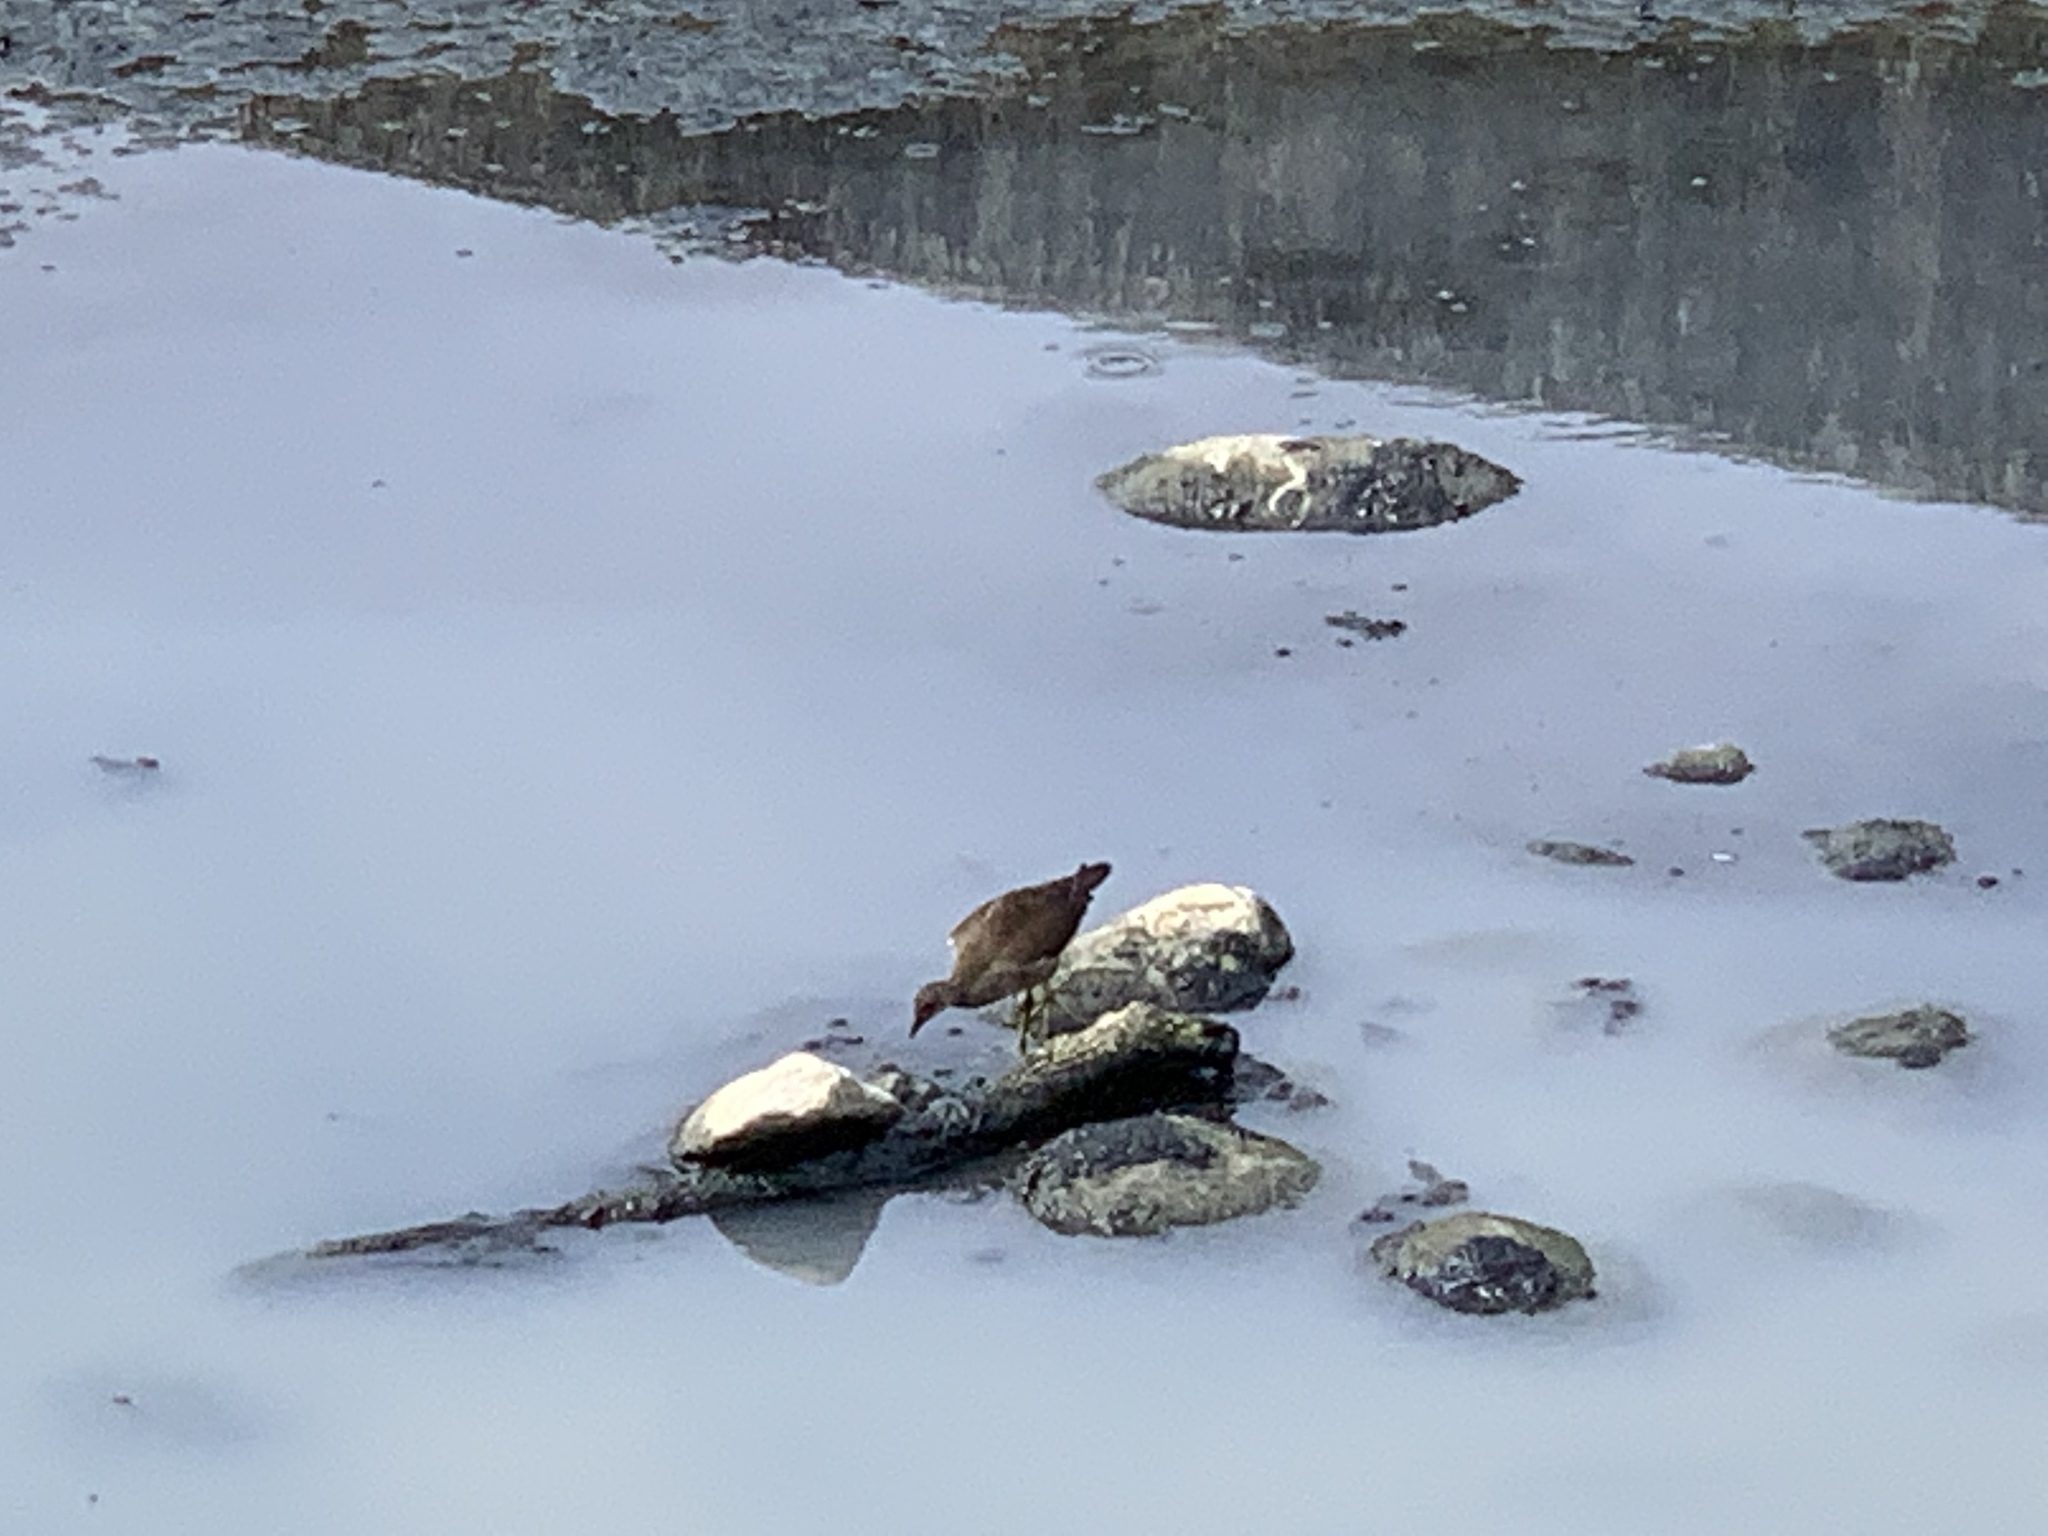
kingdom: Animalia
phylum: Chordata
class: Aves
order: Gruiformes
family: Rallidae
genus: Gallinula
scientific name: Gallinula chloropus
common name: Common moorhen
